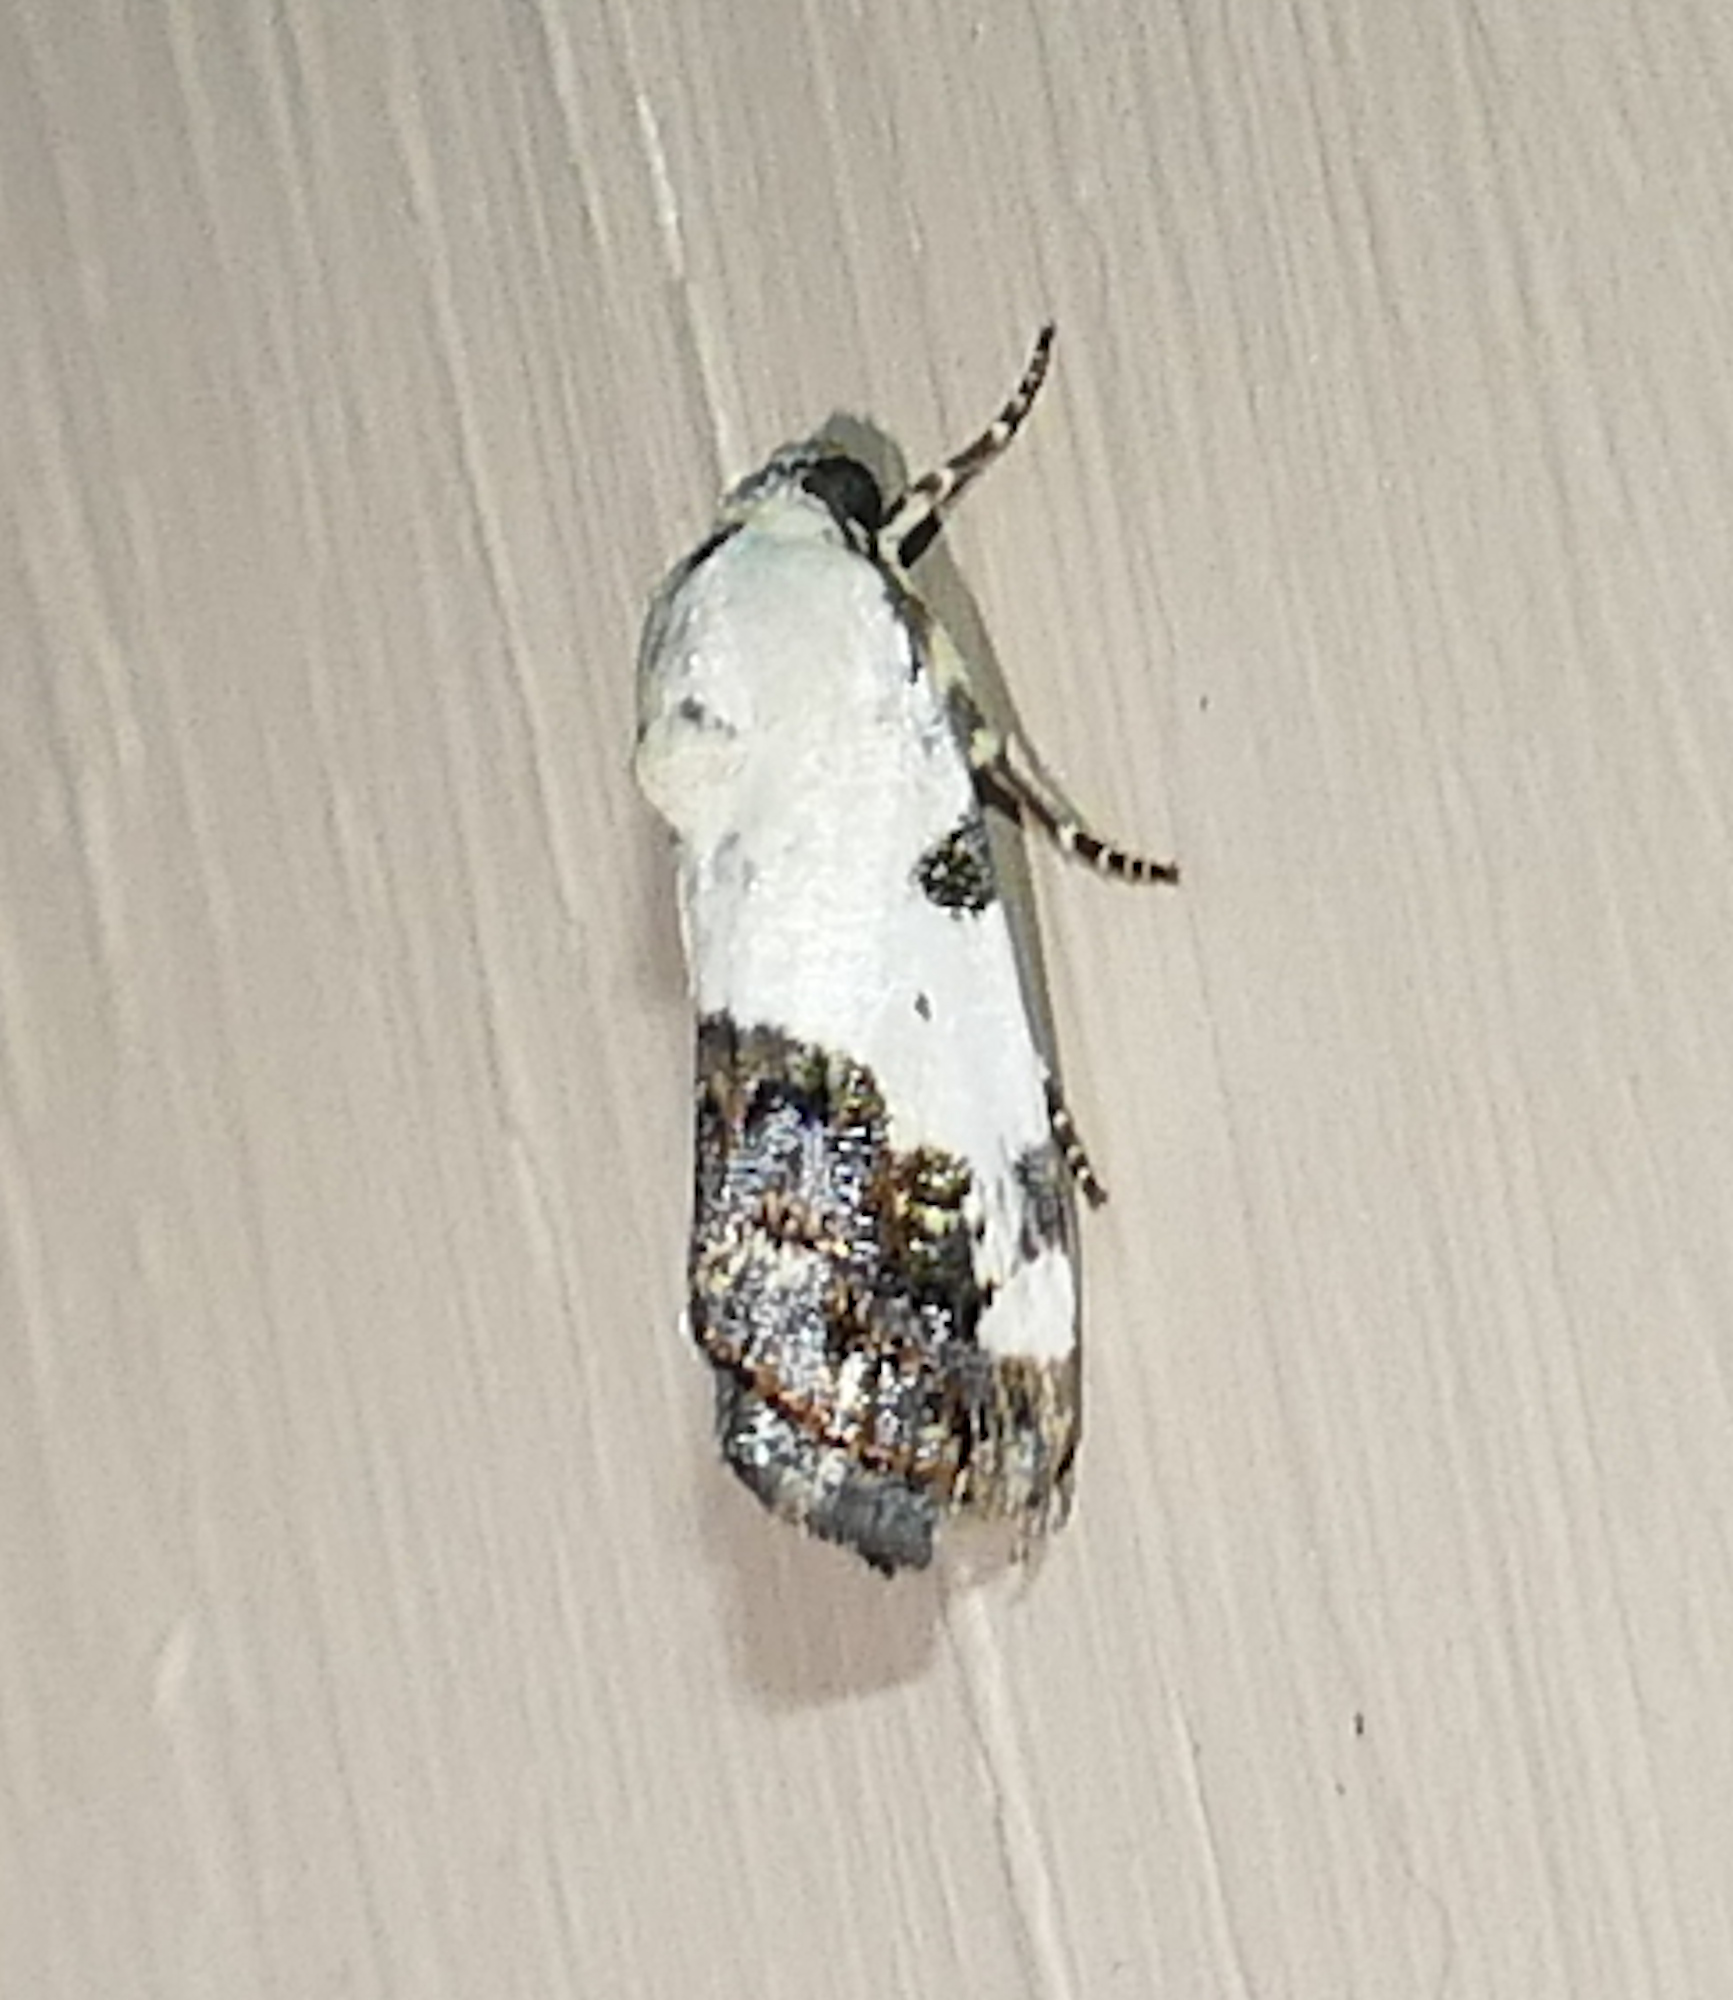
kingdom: Animalia
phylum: Arthropoda
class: Insecta
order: Lepidoptera
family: Noctuidae
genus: Acontia
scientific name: Acontia aprica
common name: Nun
